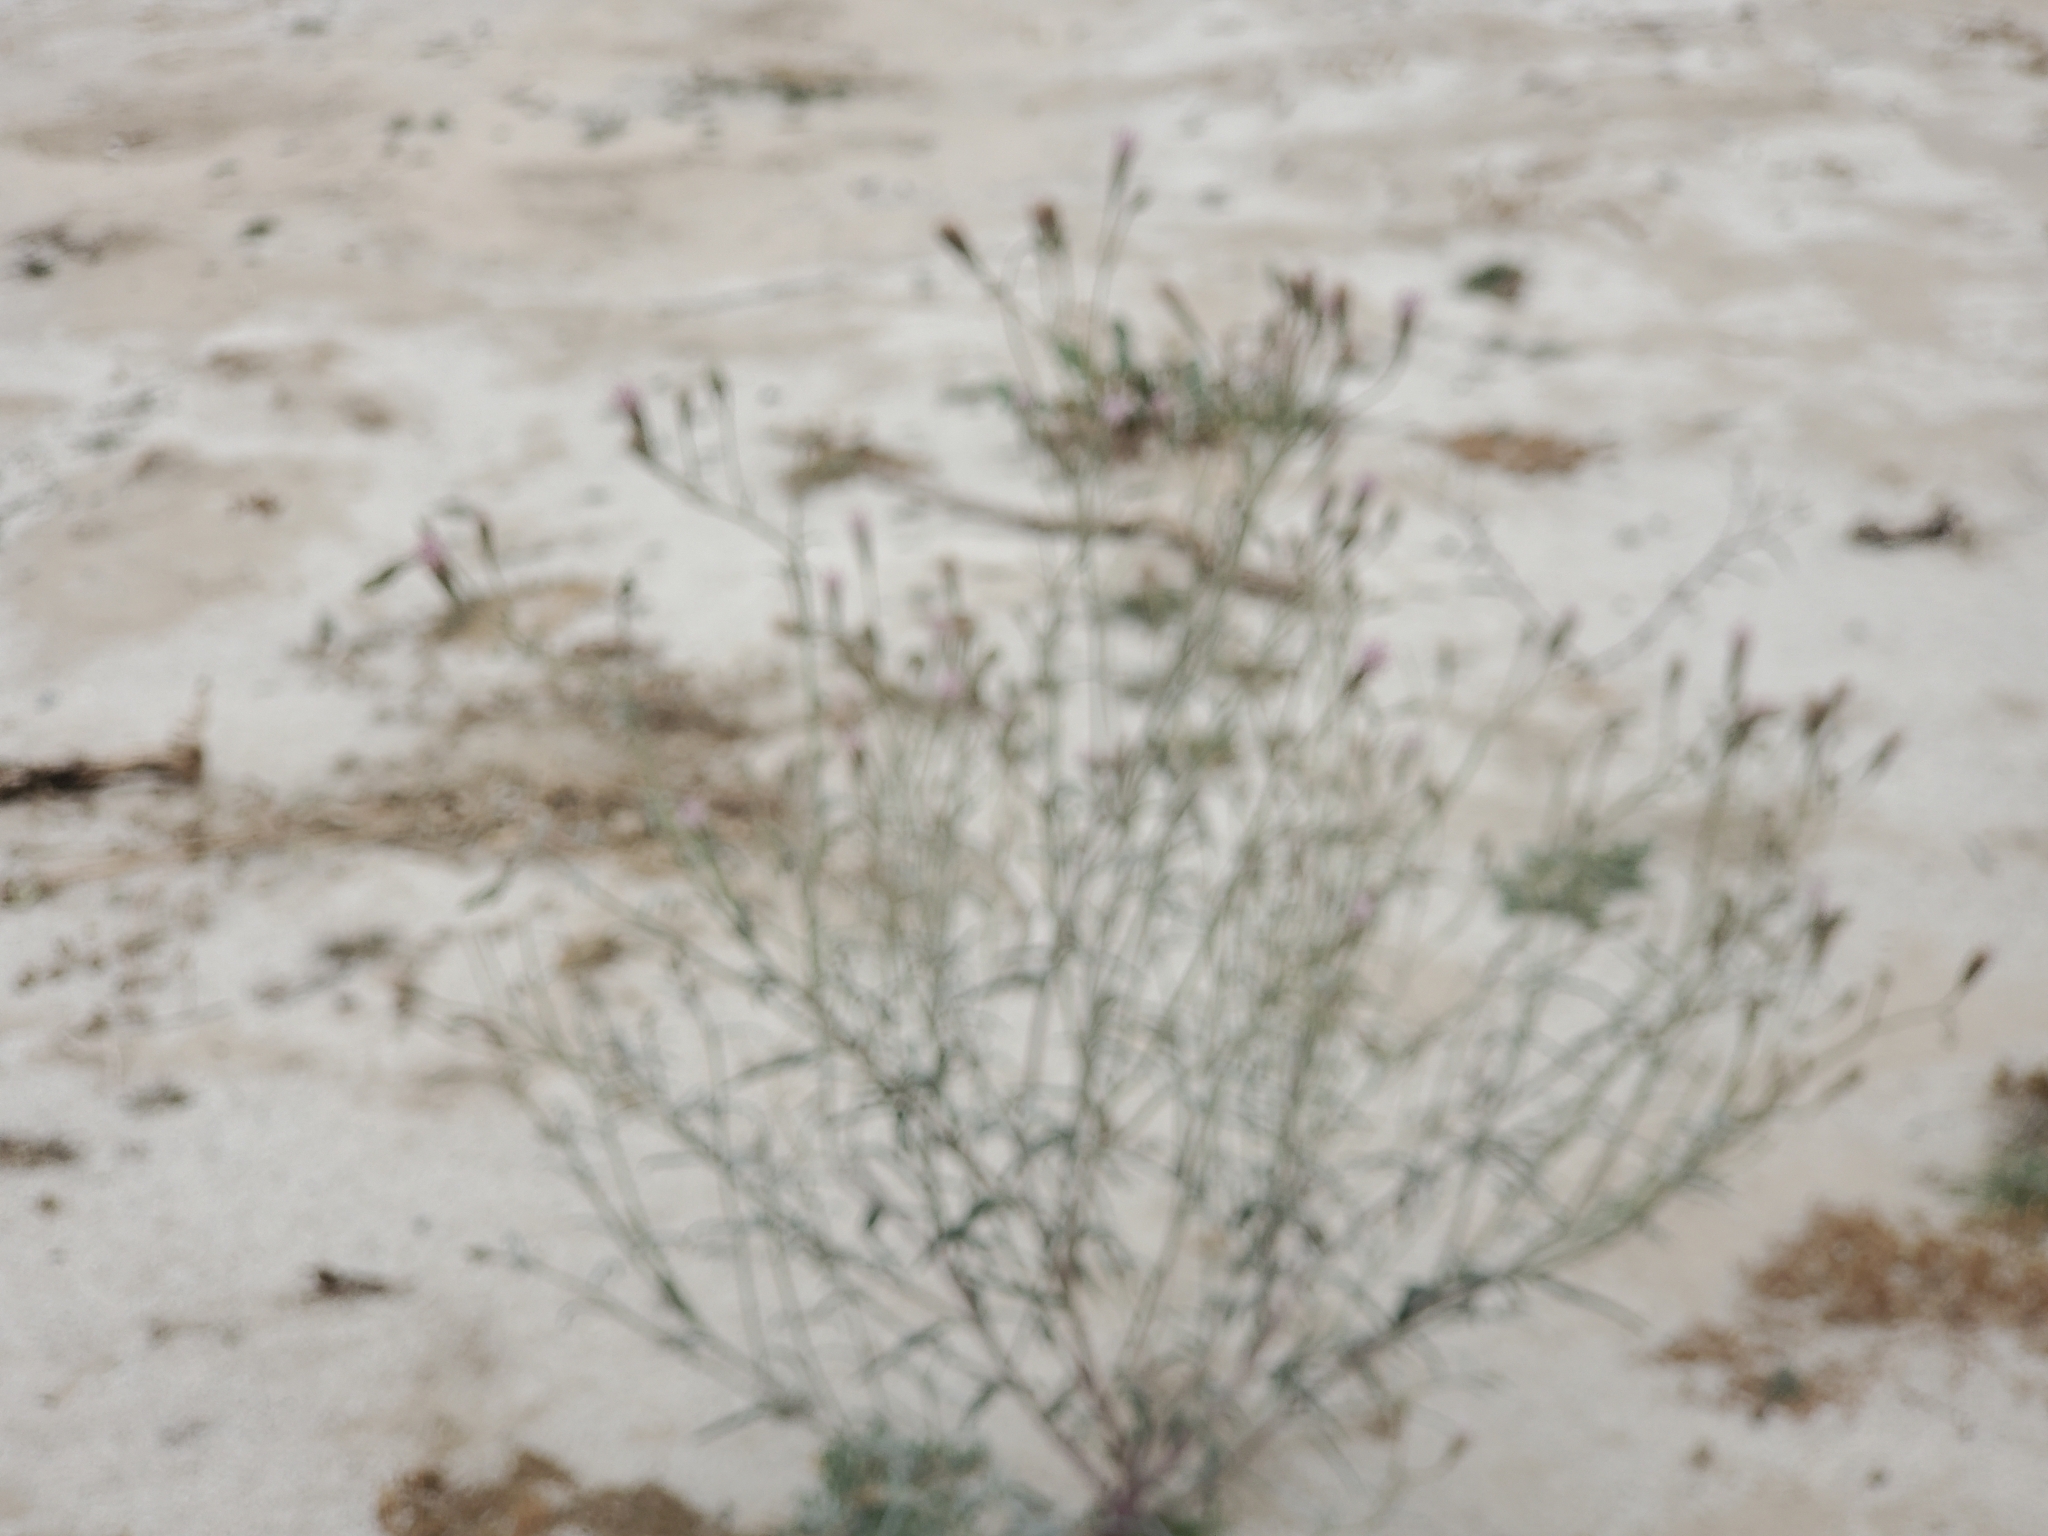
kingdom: Plantae
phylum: Tracheophyta
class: Magnoliopsida
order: Asterales
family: Asteraceae
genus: Palafoxia
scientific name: Palafoxia arida
